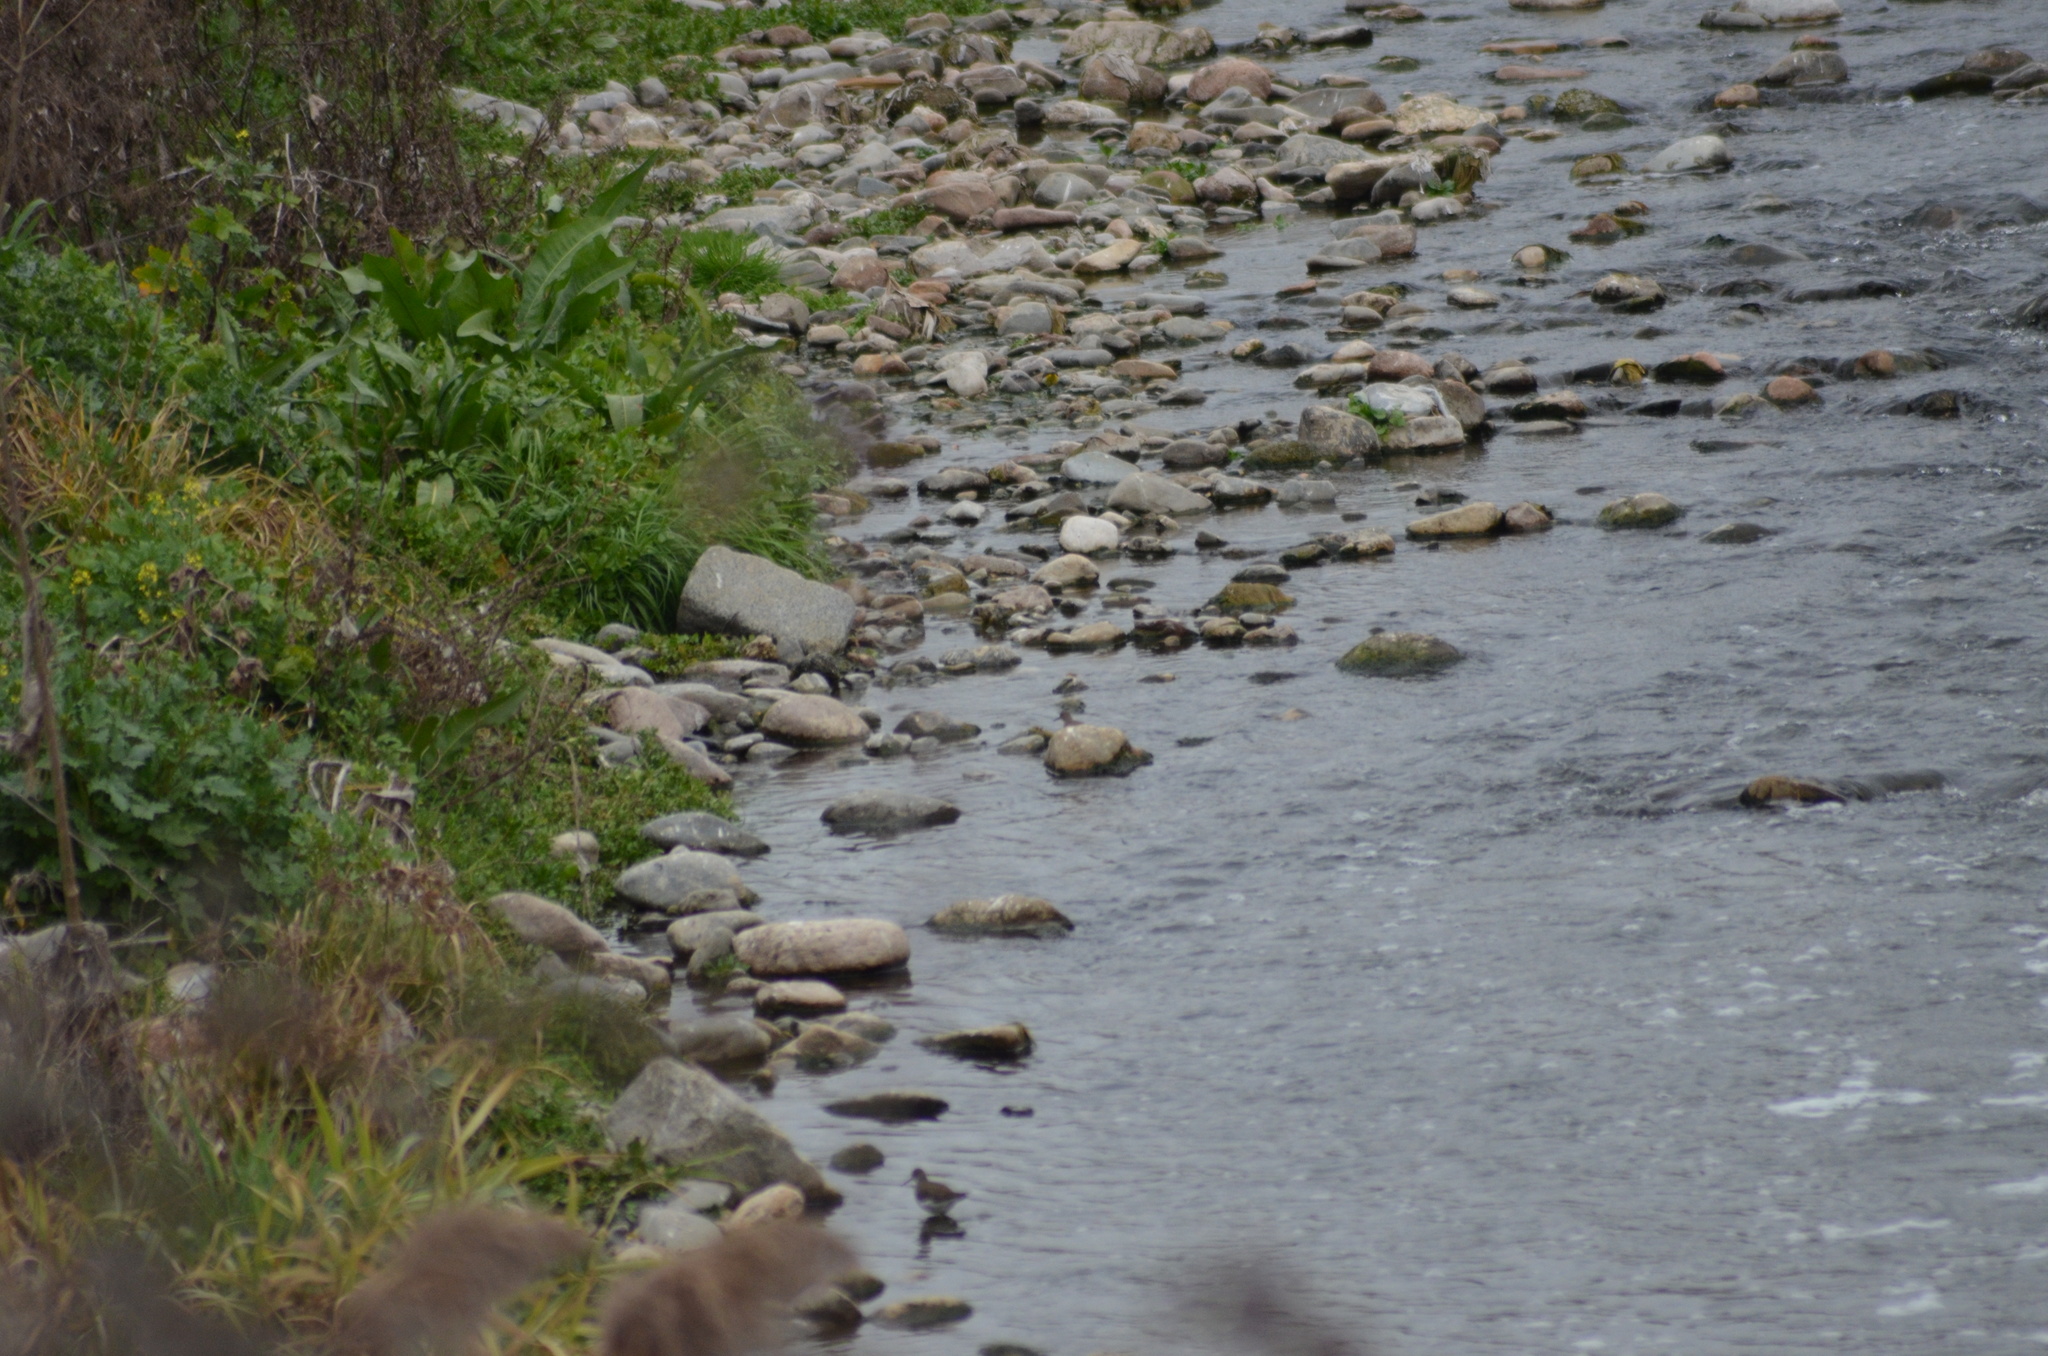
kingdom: Animalia
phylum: Chordata
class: Aves
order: Charadriiformes
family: Scolopacidae
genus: Actitis
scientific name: Actitis hypoleucos
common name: Common sandpiper
